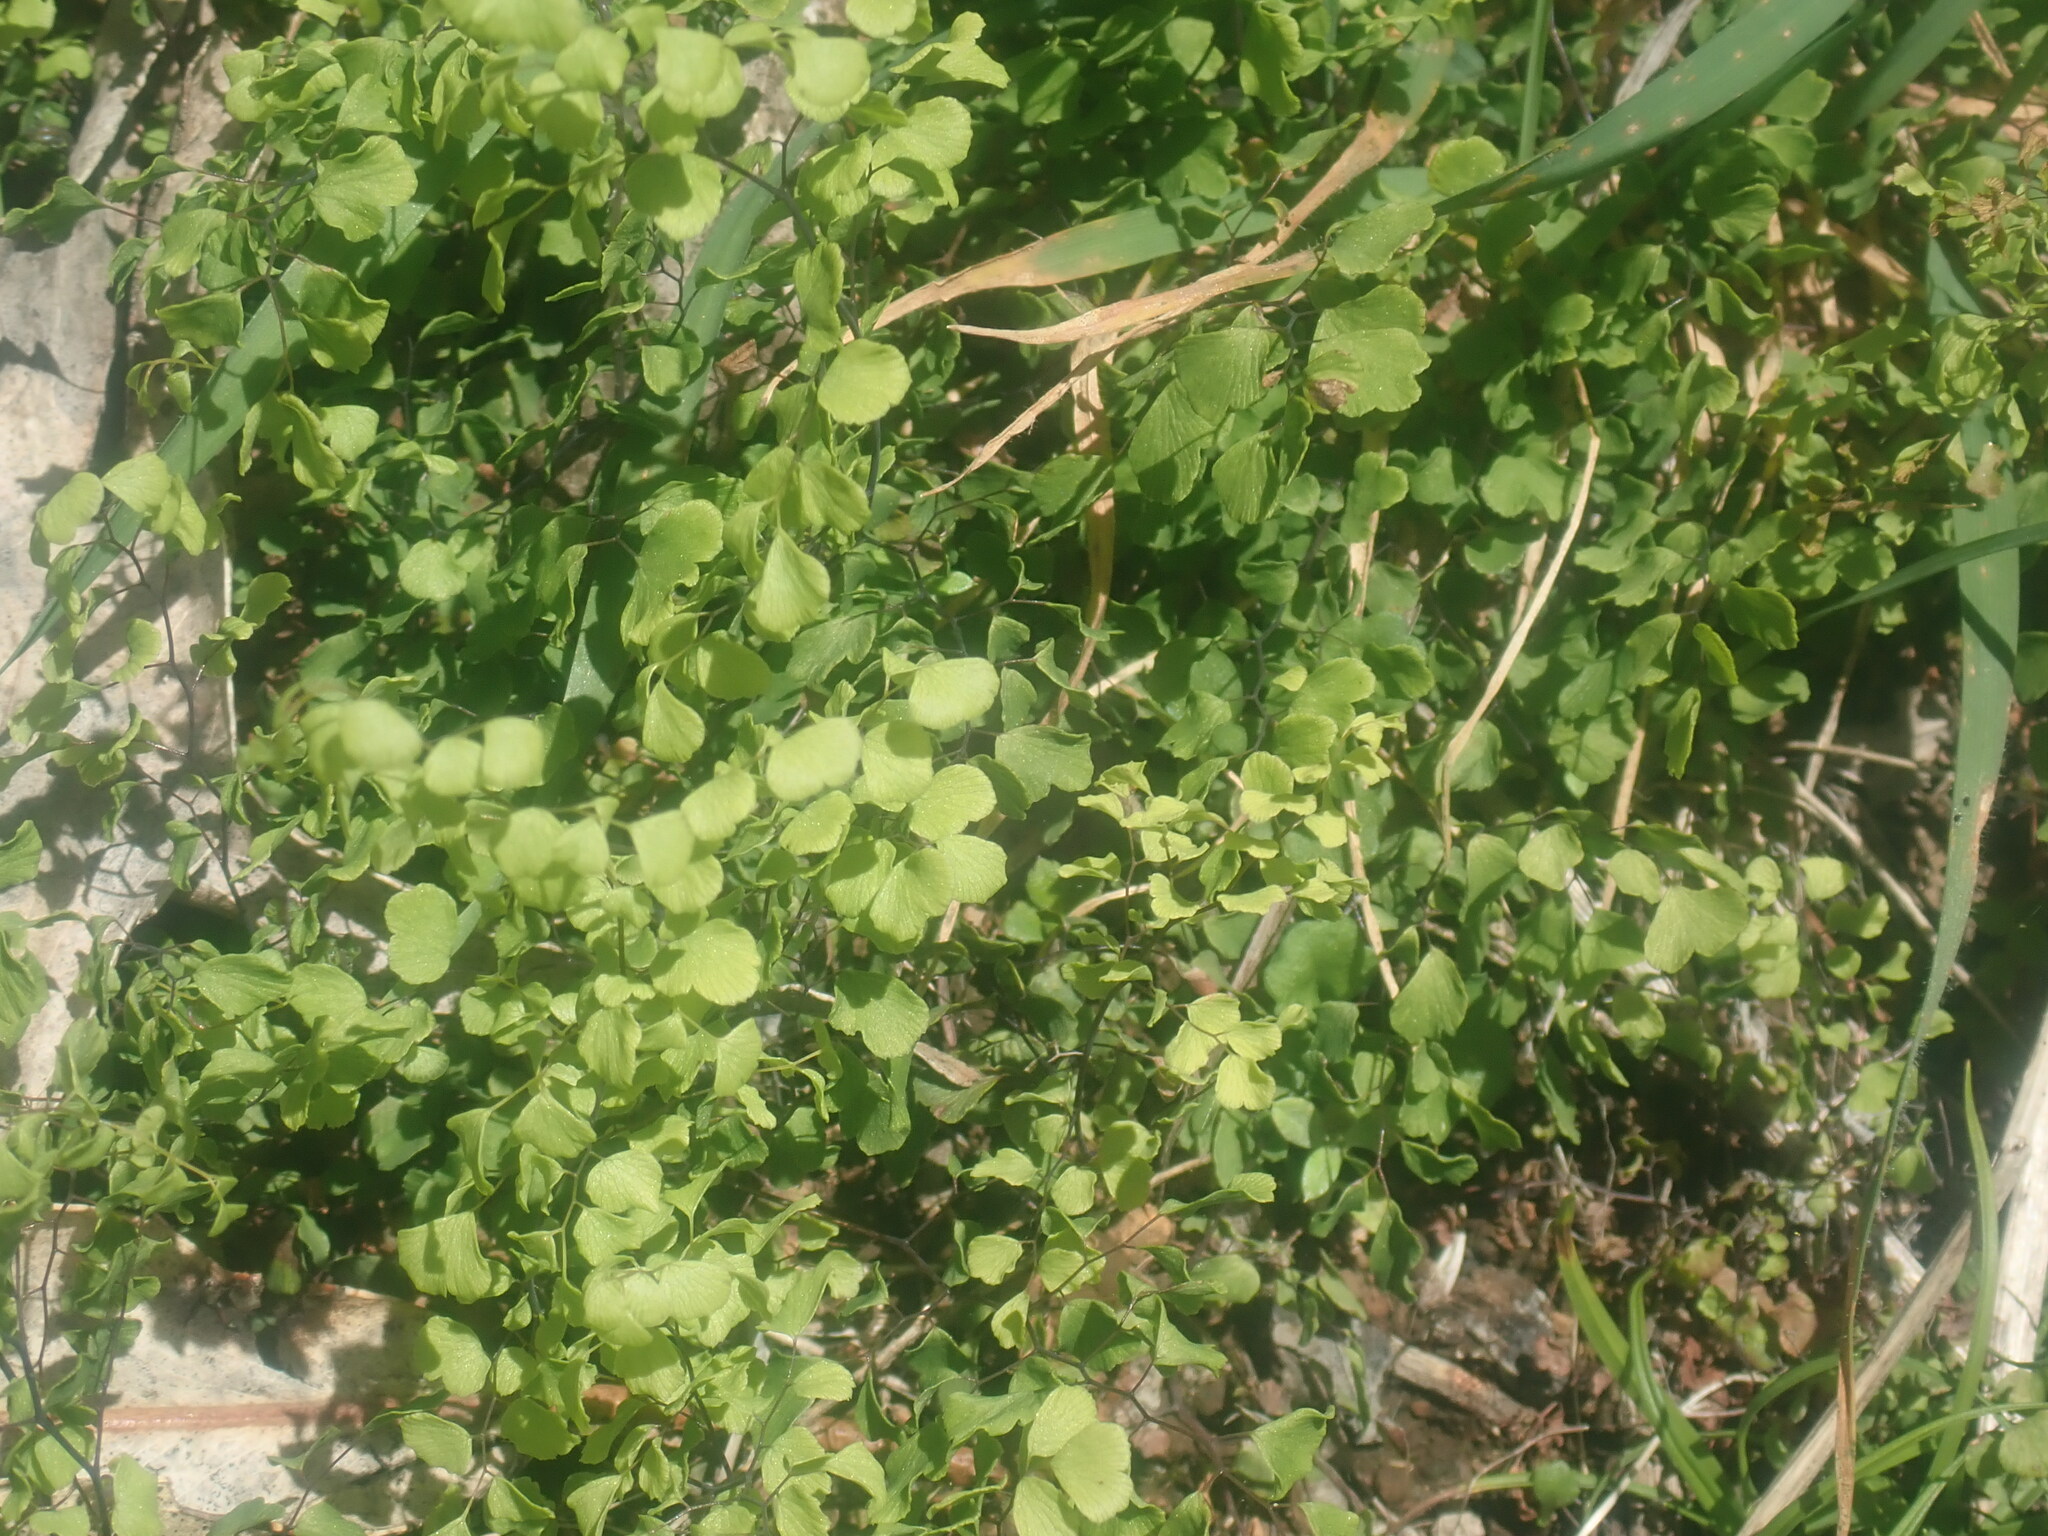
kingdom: Plantae
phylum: Tracheophyta
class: Polypodiopsida
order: Polypodiales
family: Pteridaceae
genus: Adiantum
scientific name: Adiantum aethiopicum
